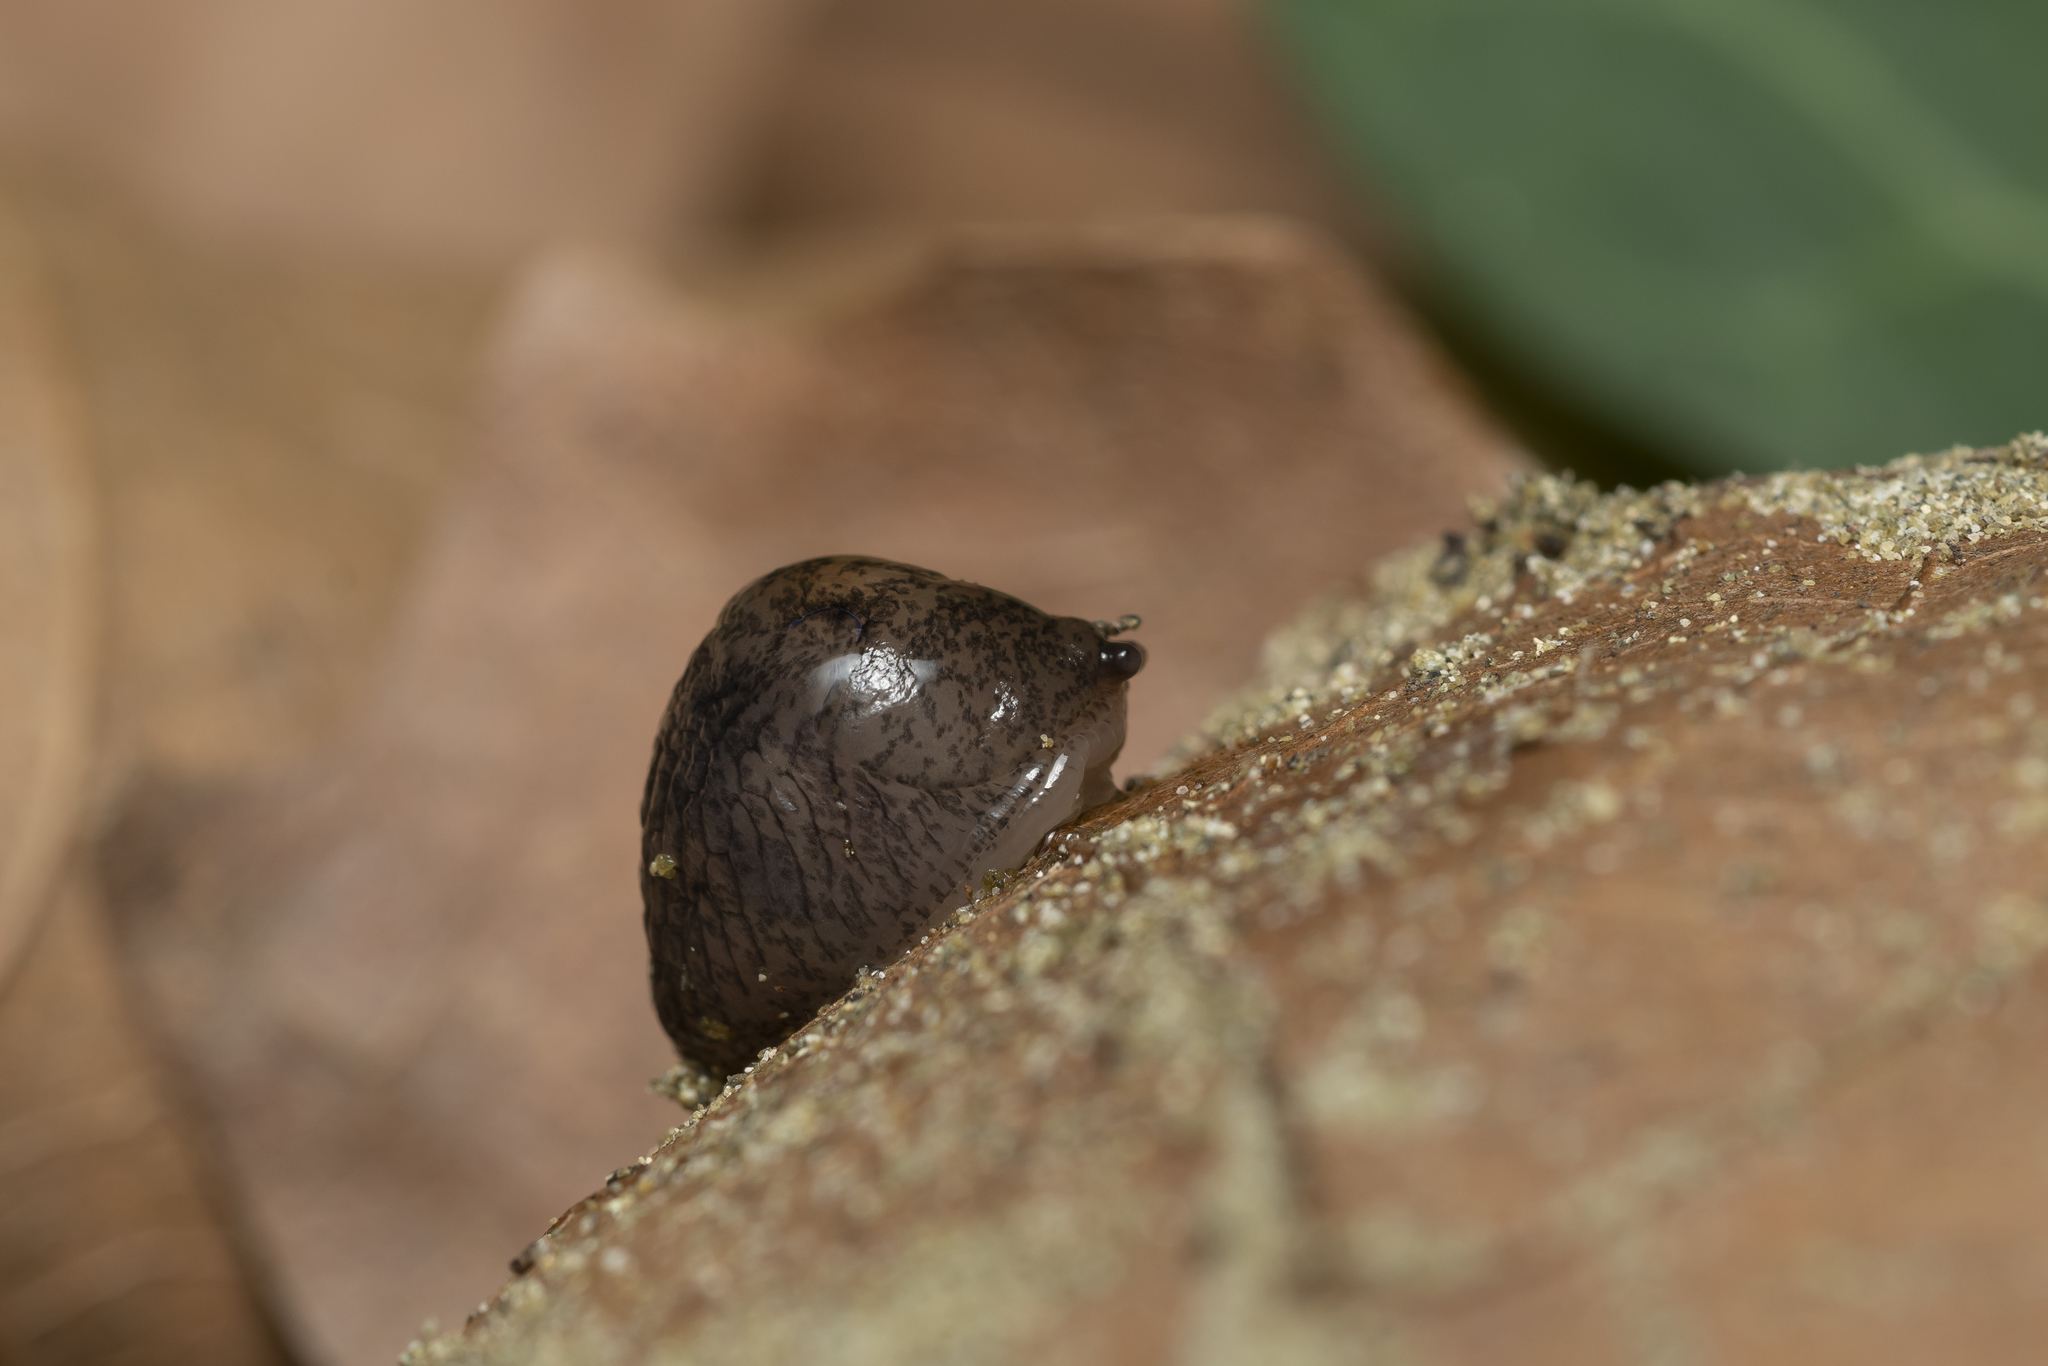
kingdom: Animalia
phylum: Mollusca
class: Gastropoda
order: Stylommatophora
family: Agriolimacidae
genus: Deroceras
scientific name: Deroceras neuteboomi
